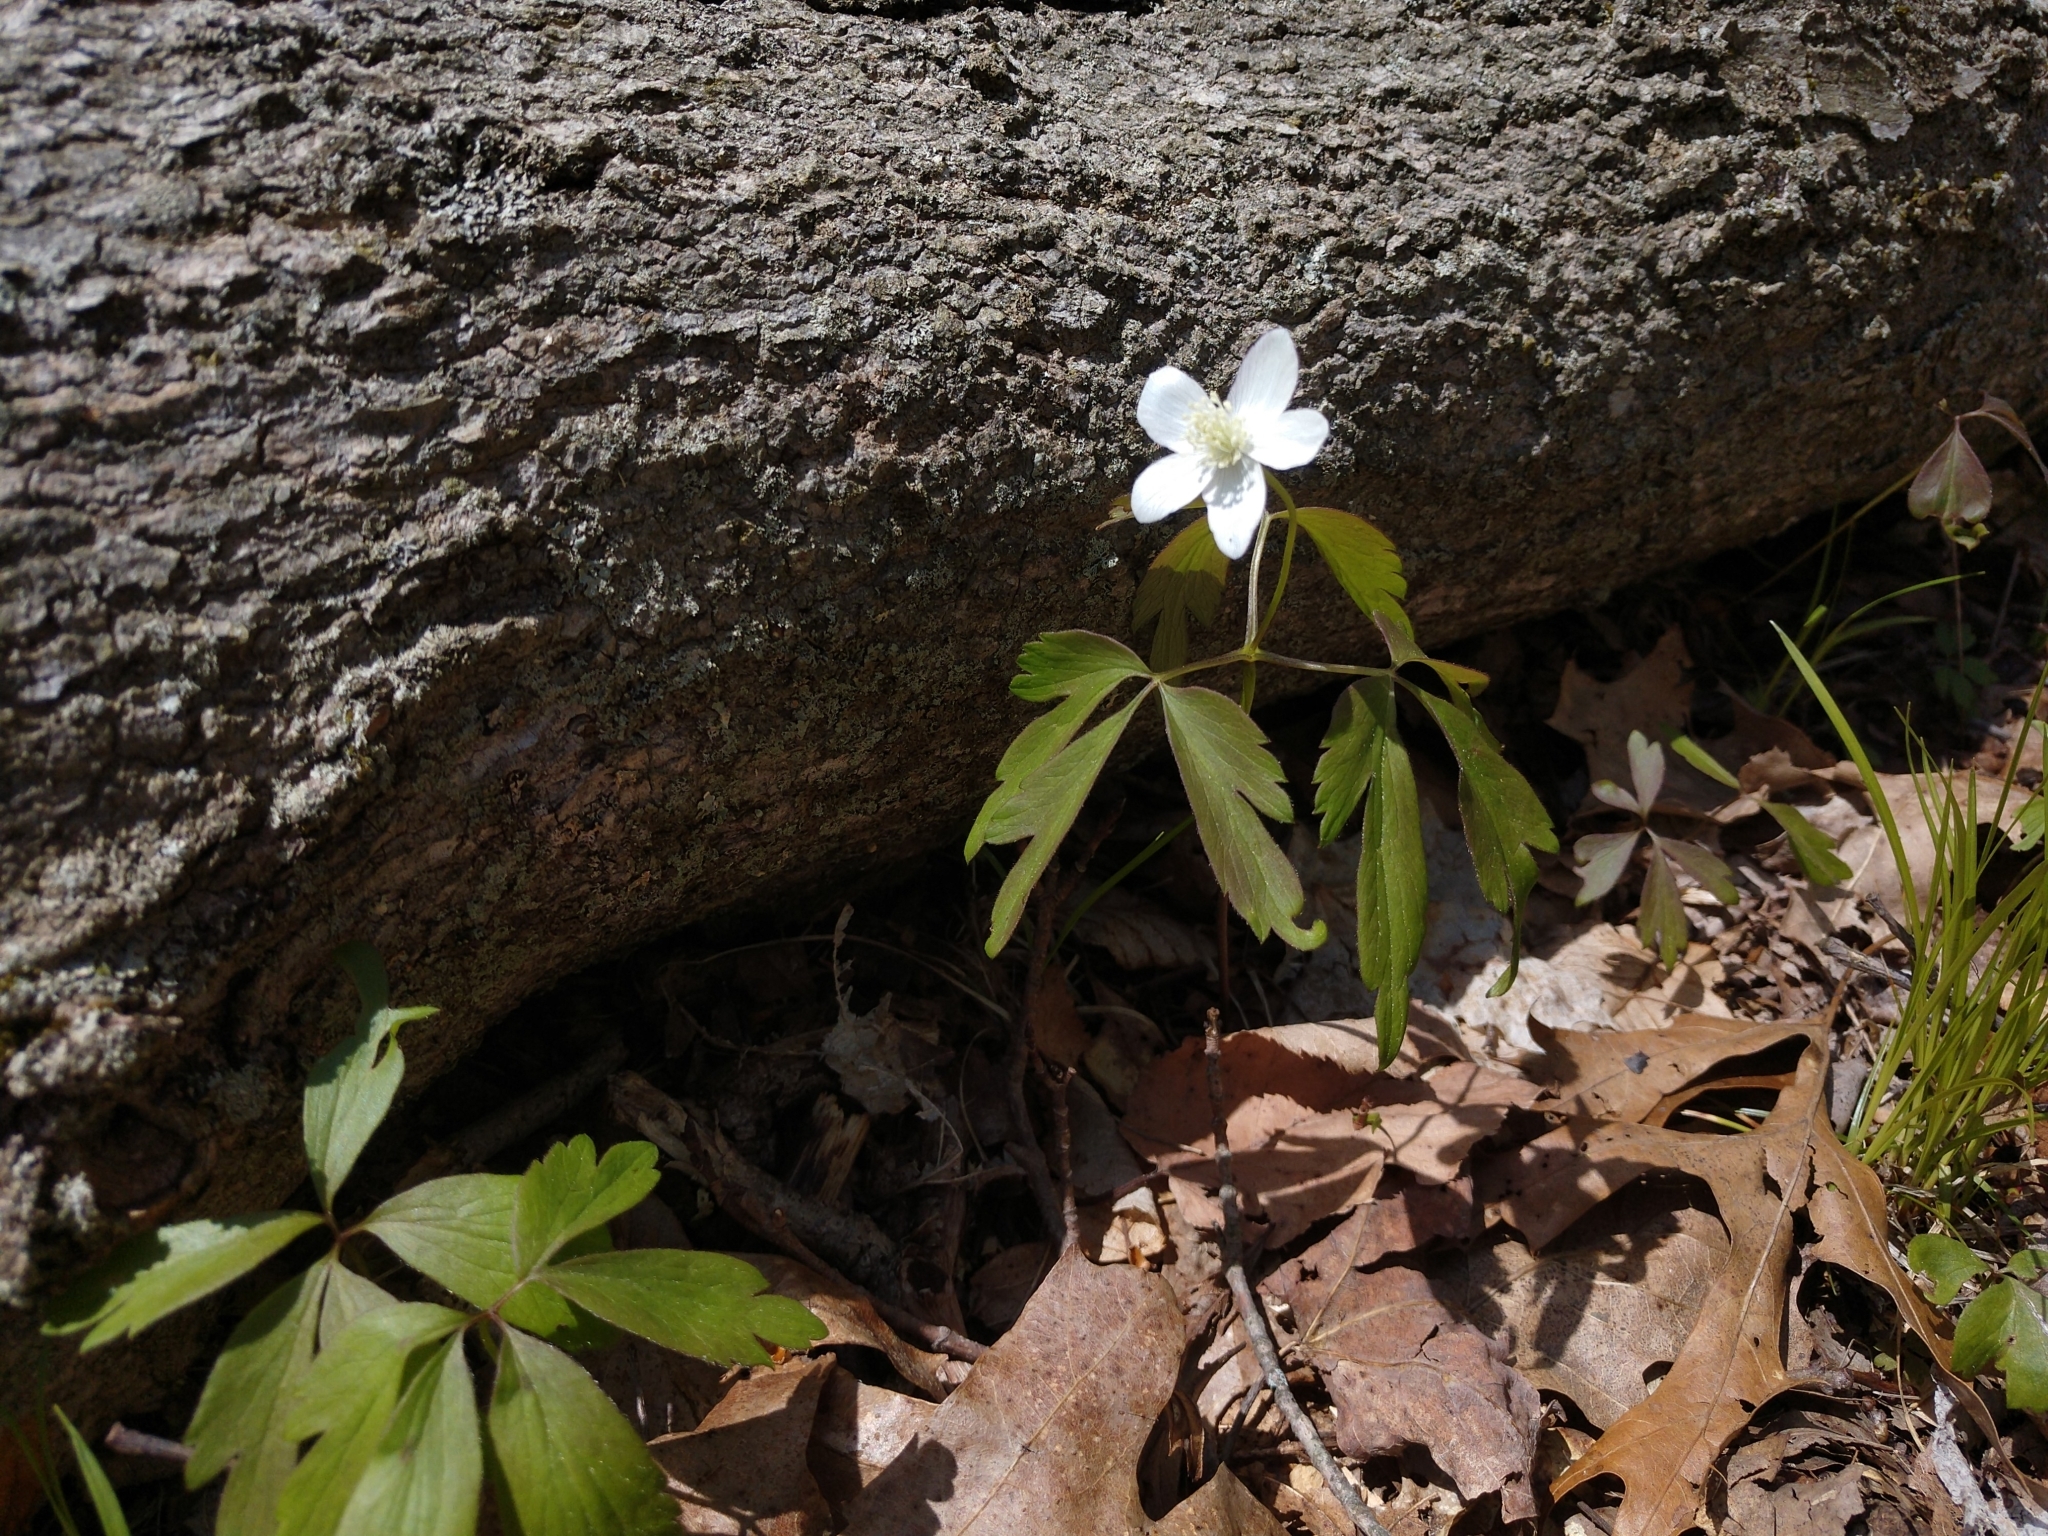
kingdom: Plantae
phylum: Tracheophyta
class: Magnoliopsida
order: Ranunculales
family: Ranunculaceae
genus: Anemone
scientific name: Anemone quinquefolia
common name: Wood anemone
